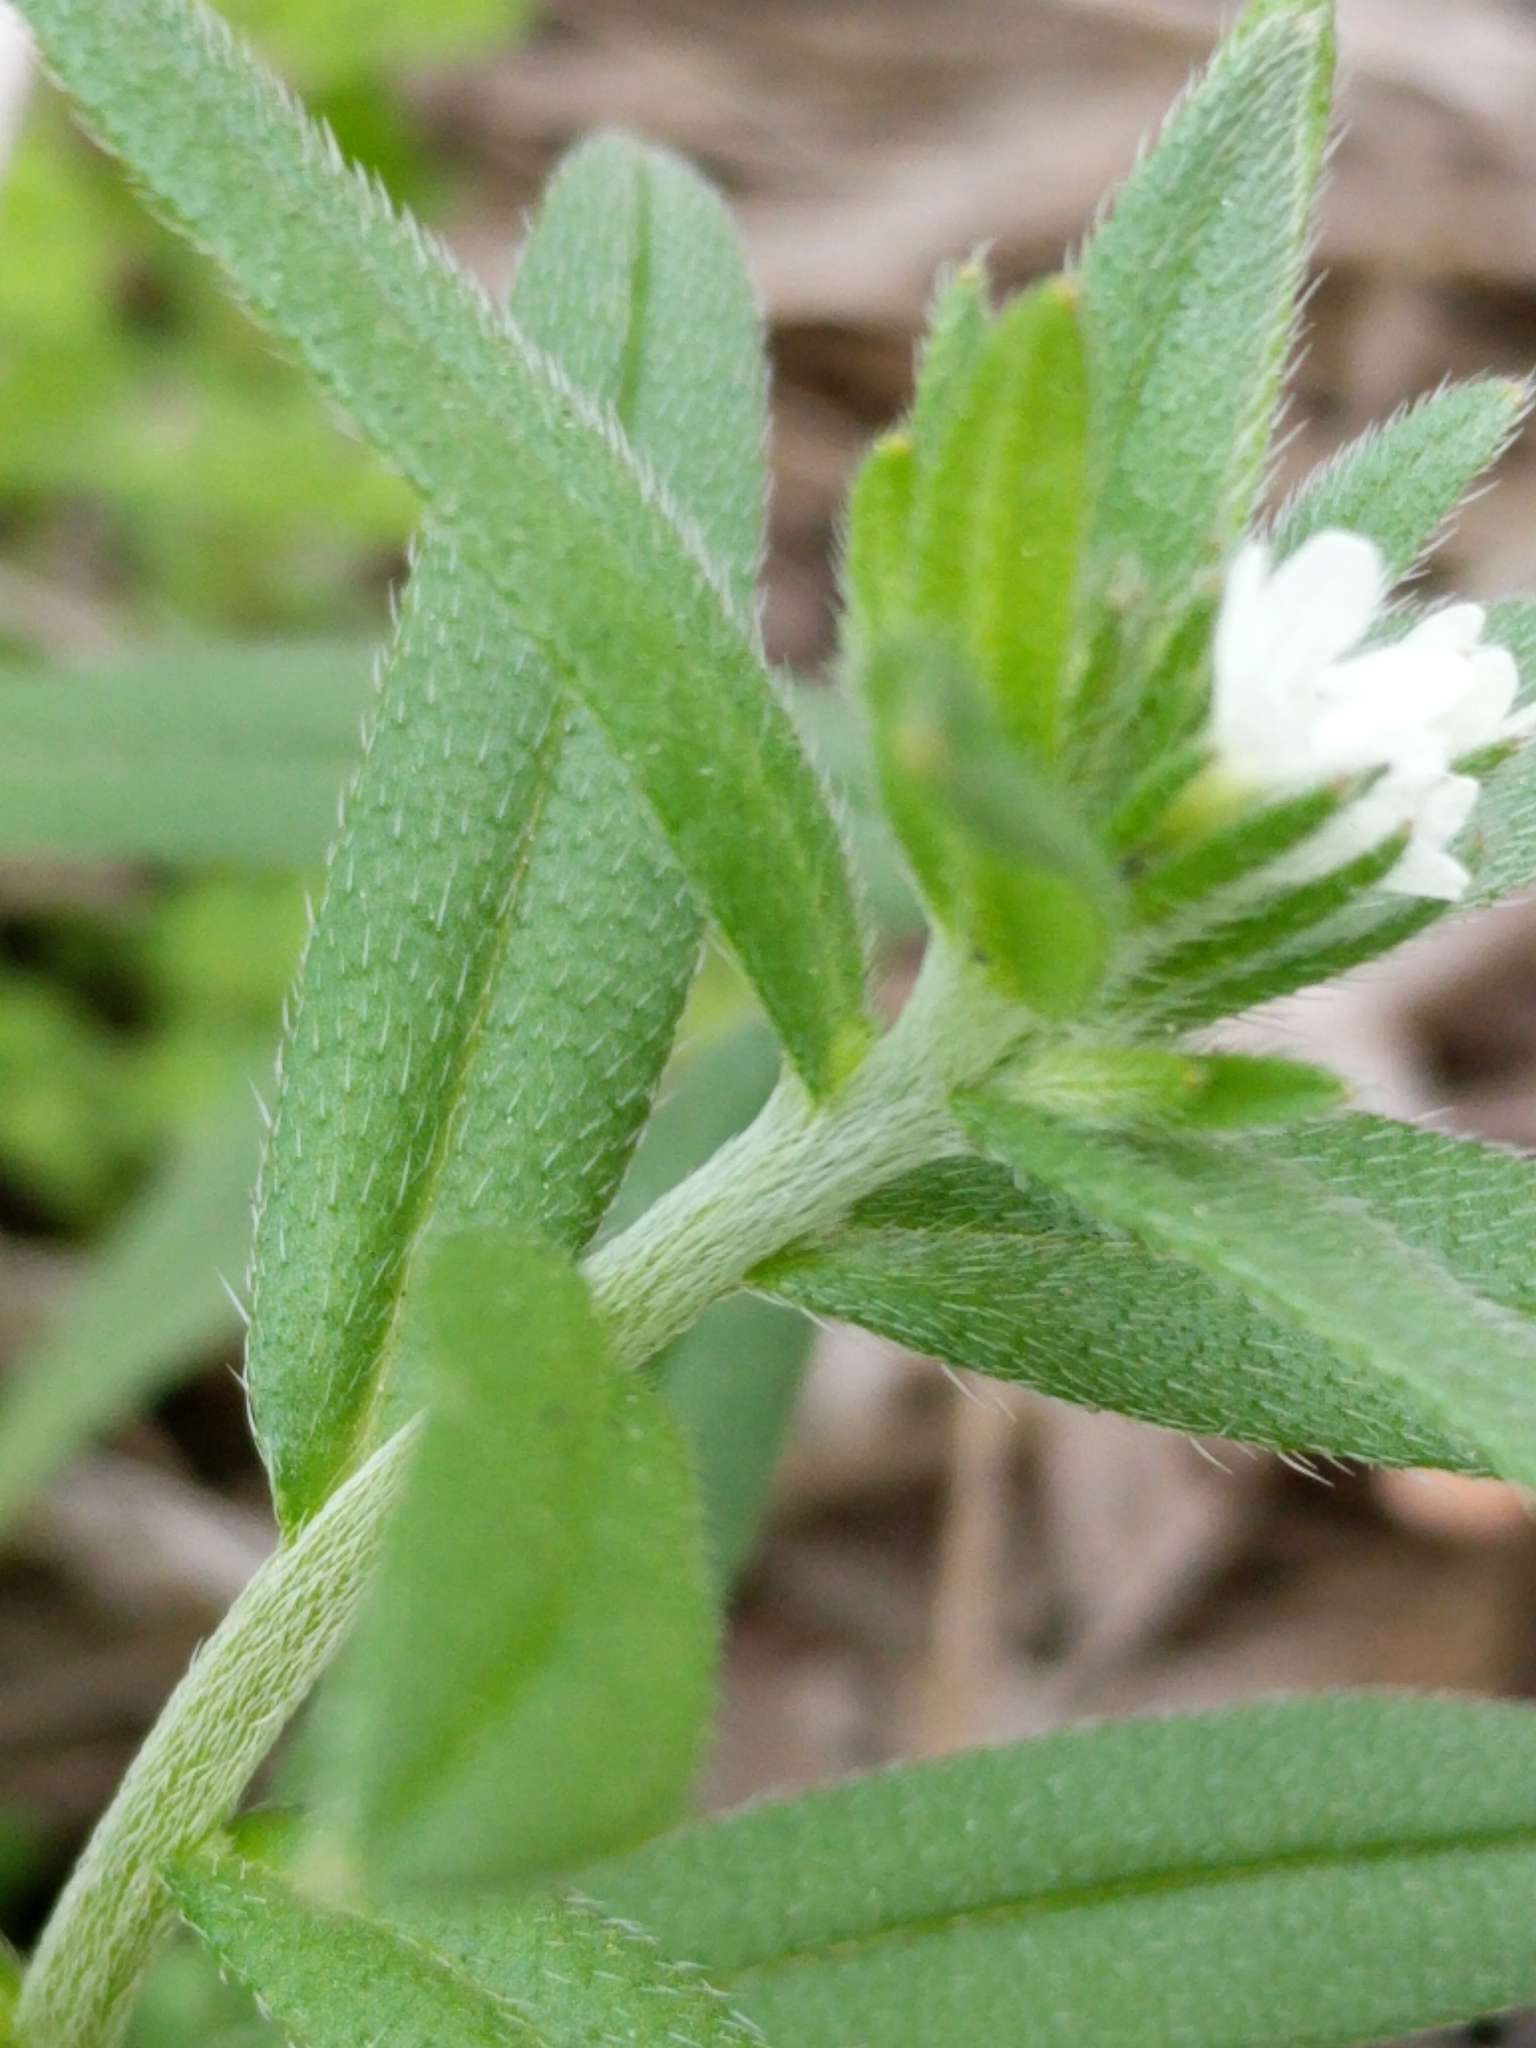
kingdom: Plantae
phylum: Tracheophyta
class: Magnoliopsida
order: Boraginales
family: Boraginaceae
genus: Buglossoides
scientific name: Buglossoides arvensis
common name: Corn gromwell
